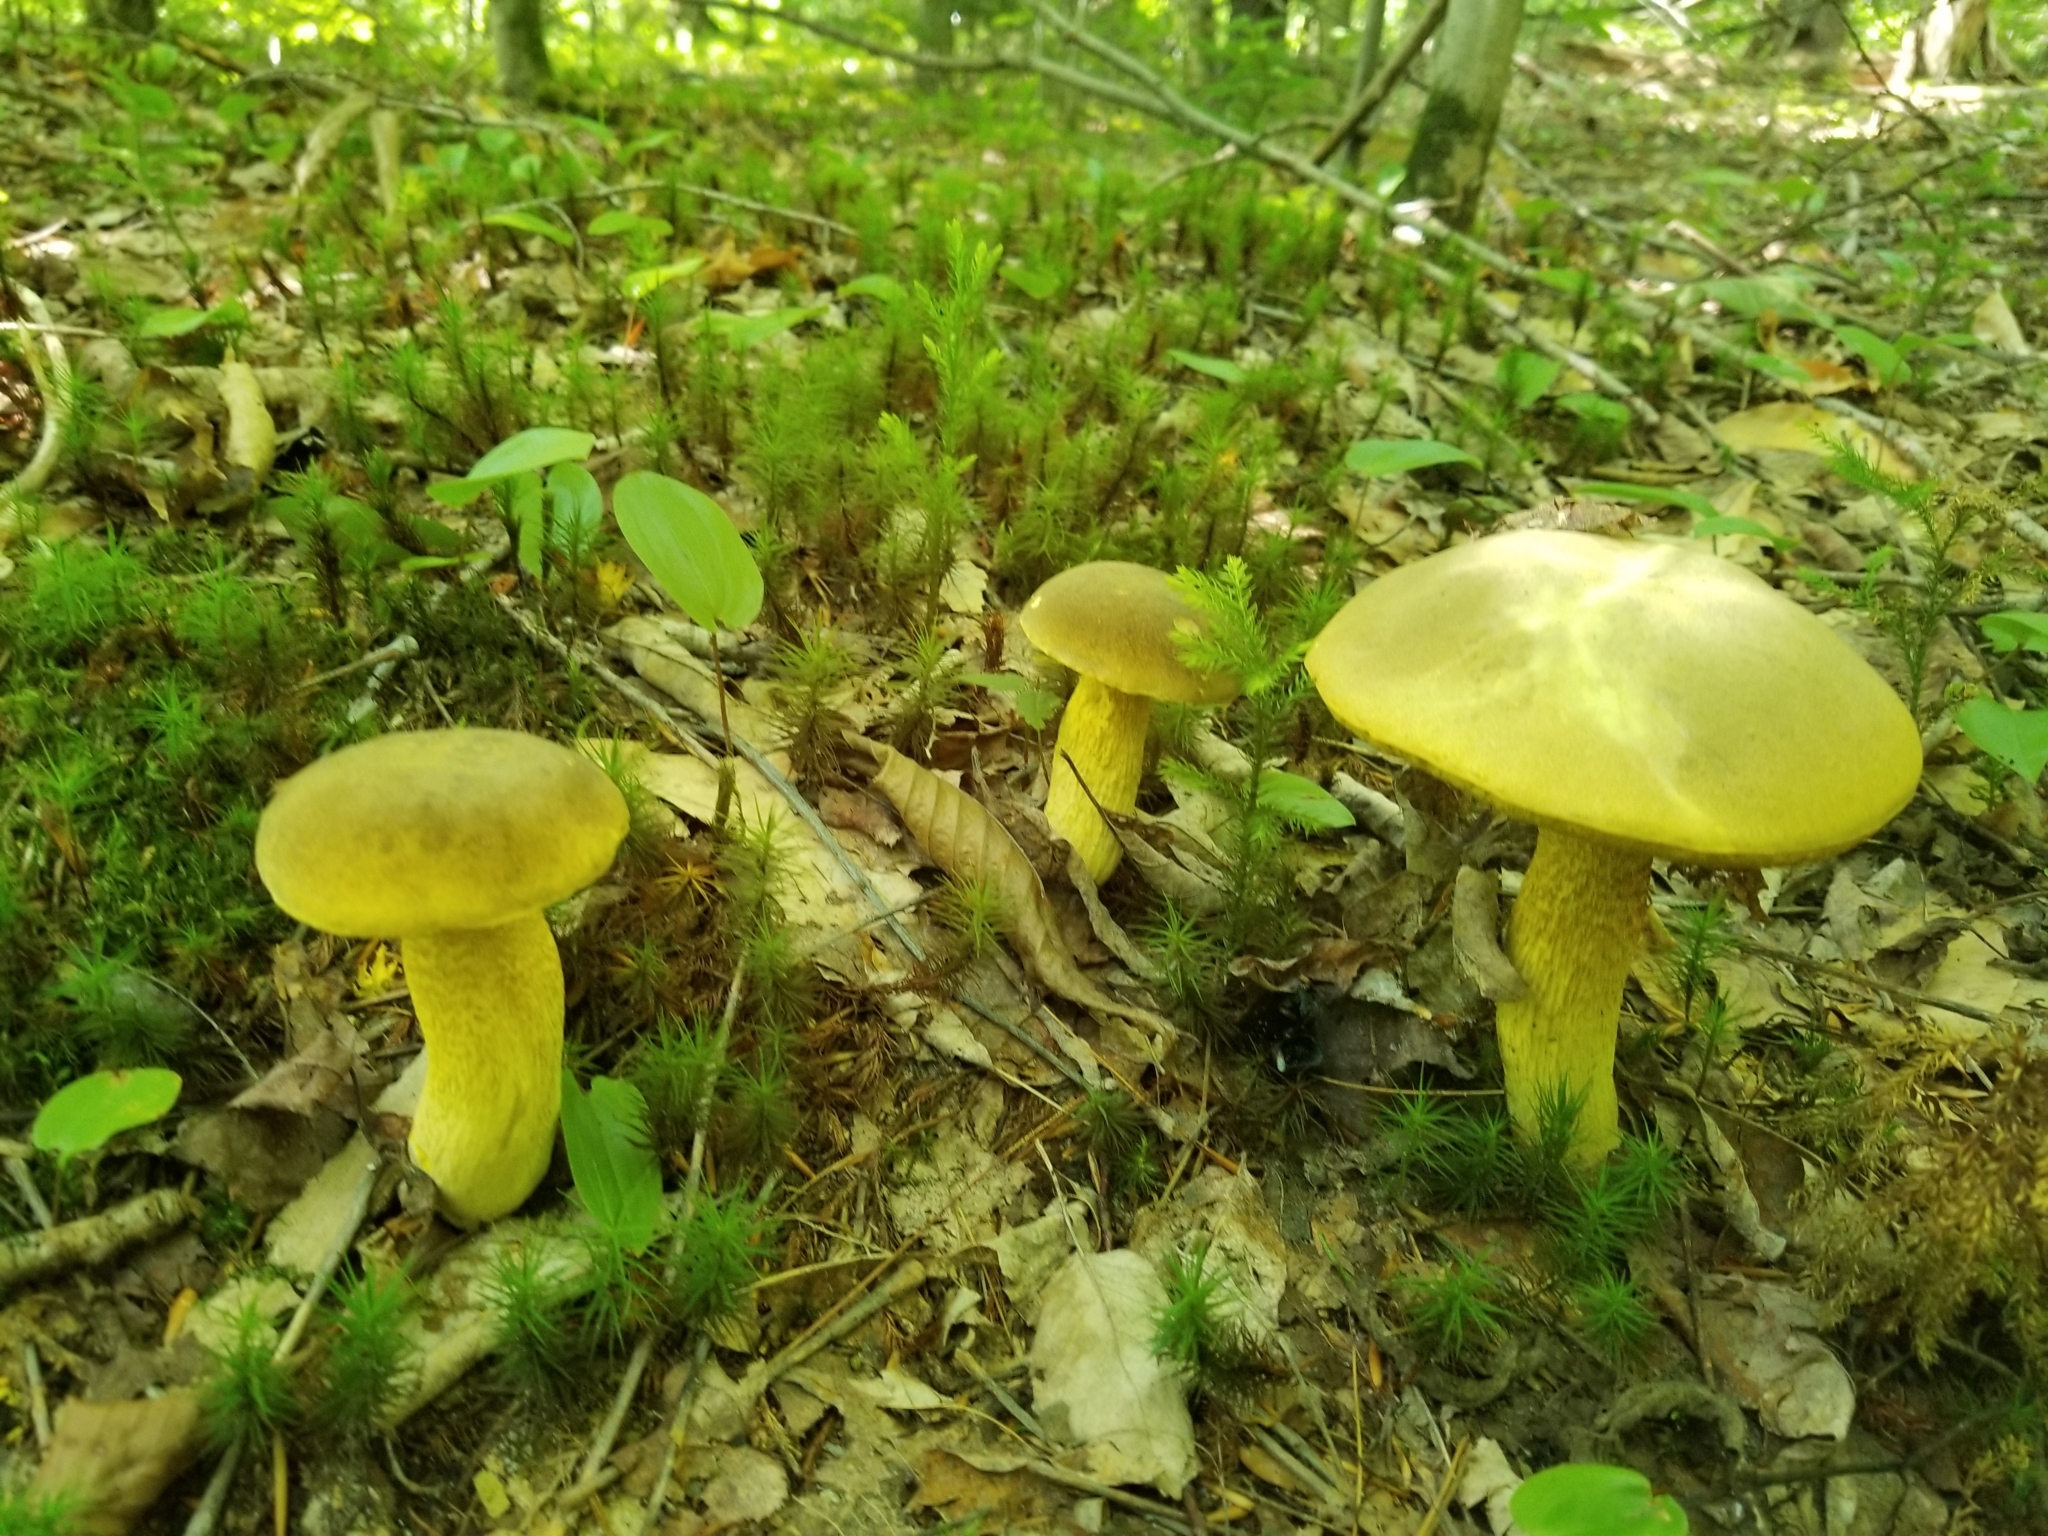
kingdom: Fungi
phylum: Basidiomycota
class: Agaricomycetes
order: Boletales
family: Boletaceae
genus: Retiboletus
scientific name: Retiboletus ornatipes
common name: Ornate-stalked bolete
